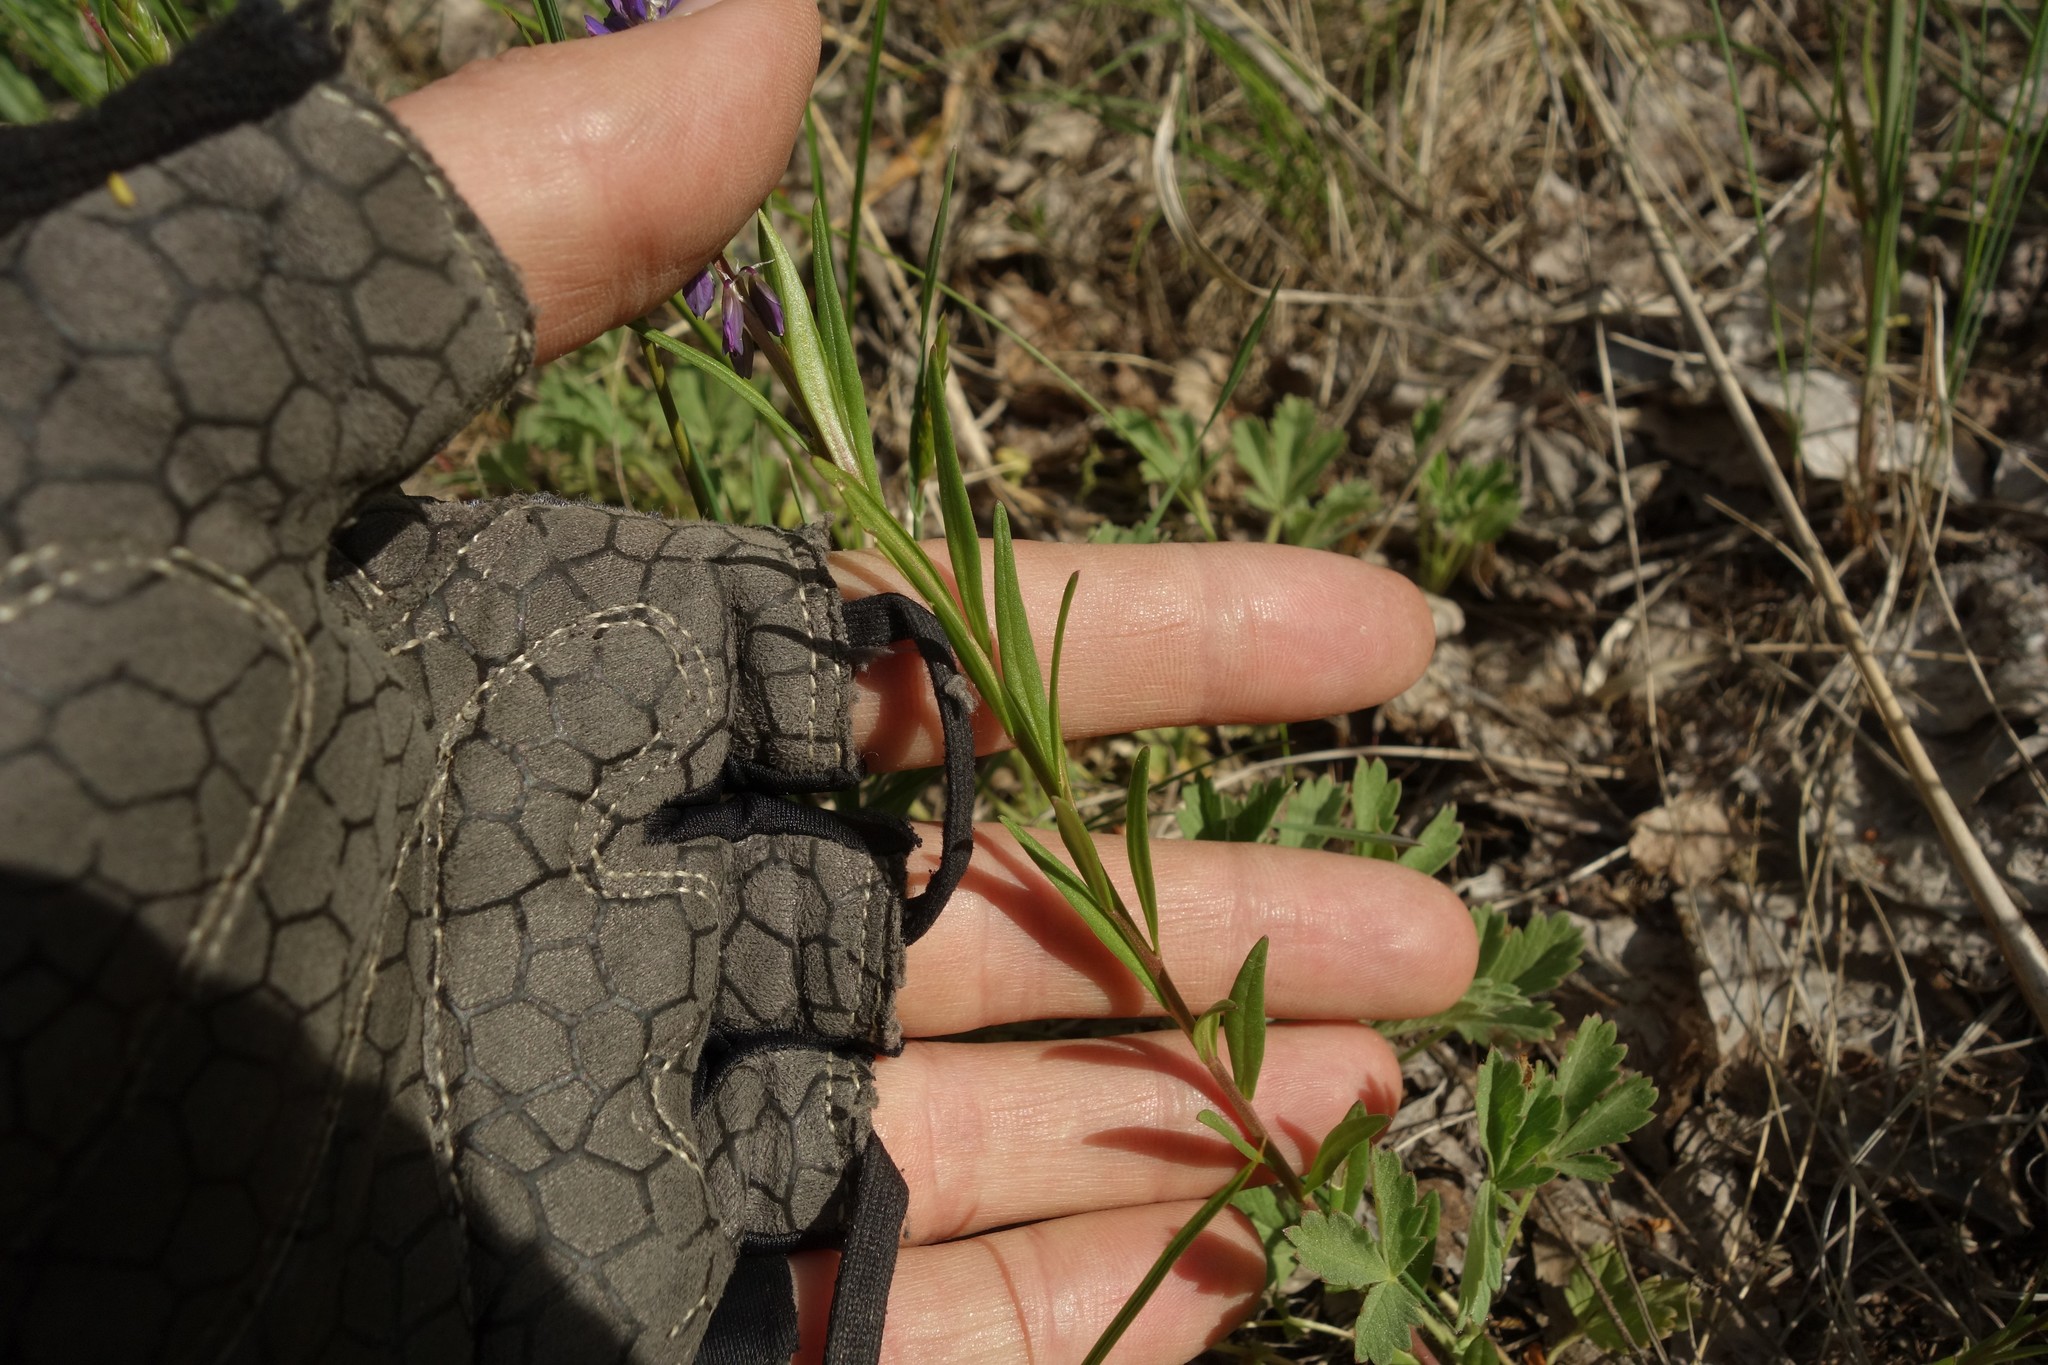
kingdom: Plantae
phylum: Tracheophyta
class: Magnoliopsida
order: Fabales
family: Polygalaceae
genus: Polygala
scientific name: Polygala comosa
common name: Tufted milkwort
